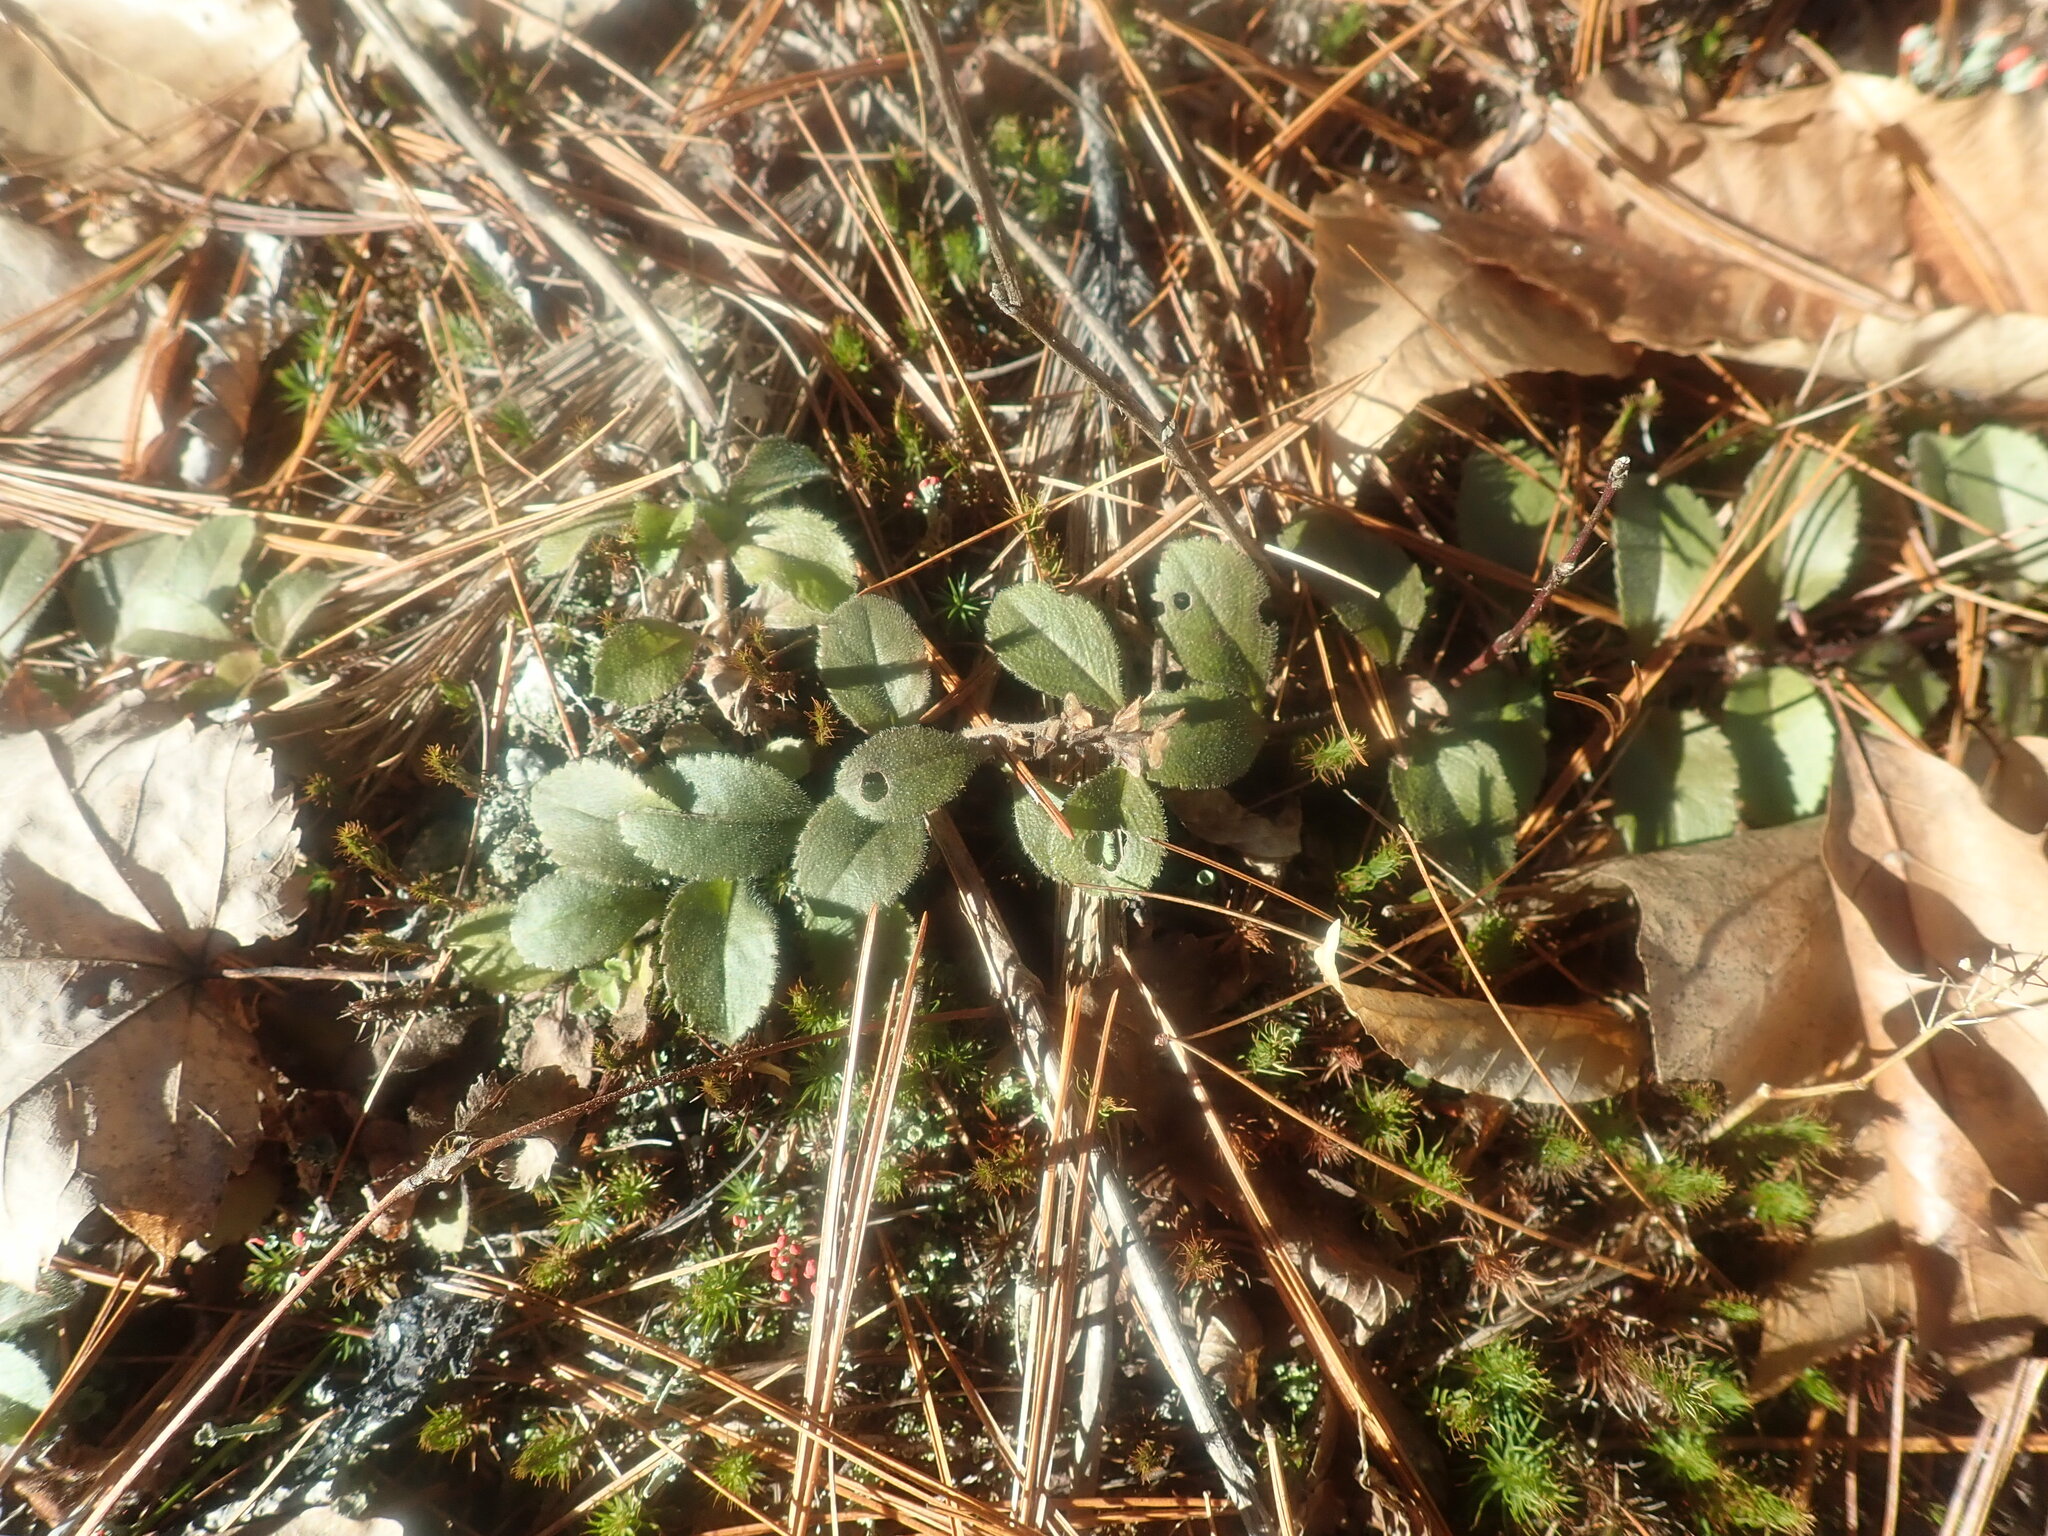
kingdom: Plantae
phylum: Tracheophyta
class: Magnoliopsida
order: Lamiales
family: Plantaginaceae
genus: Veronica
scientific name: Veronica officinalis
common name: Common speedwell
